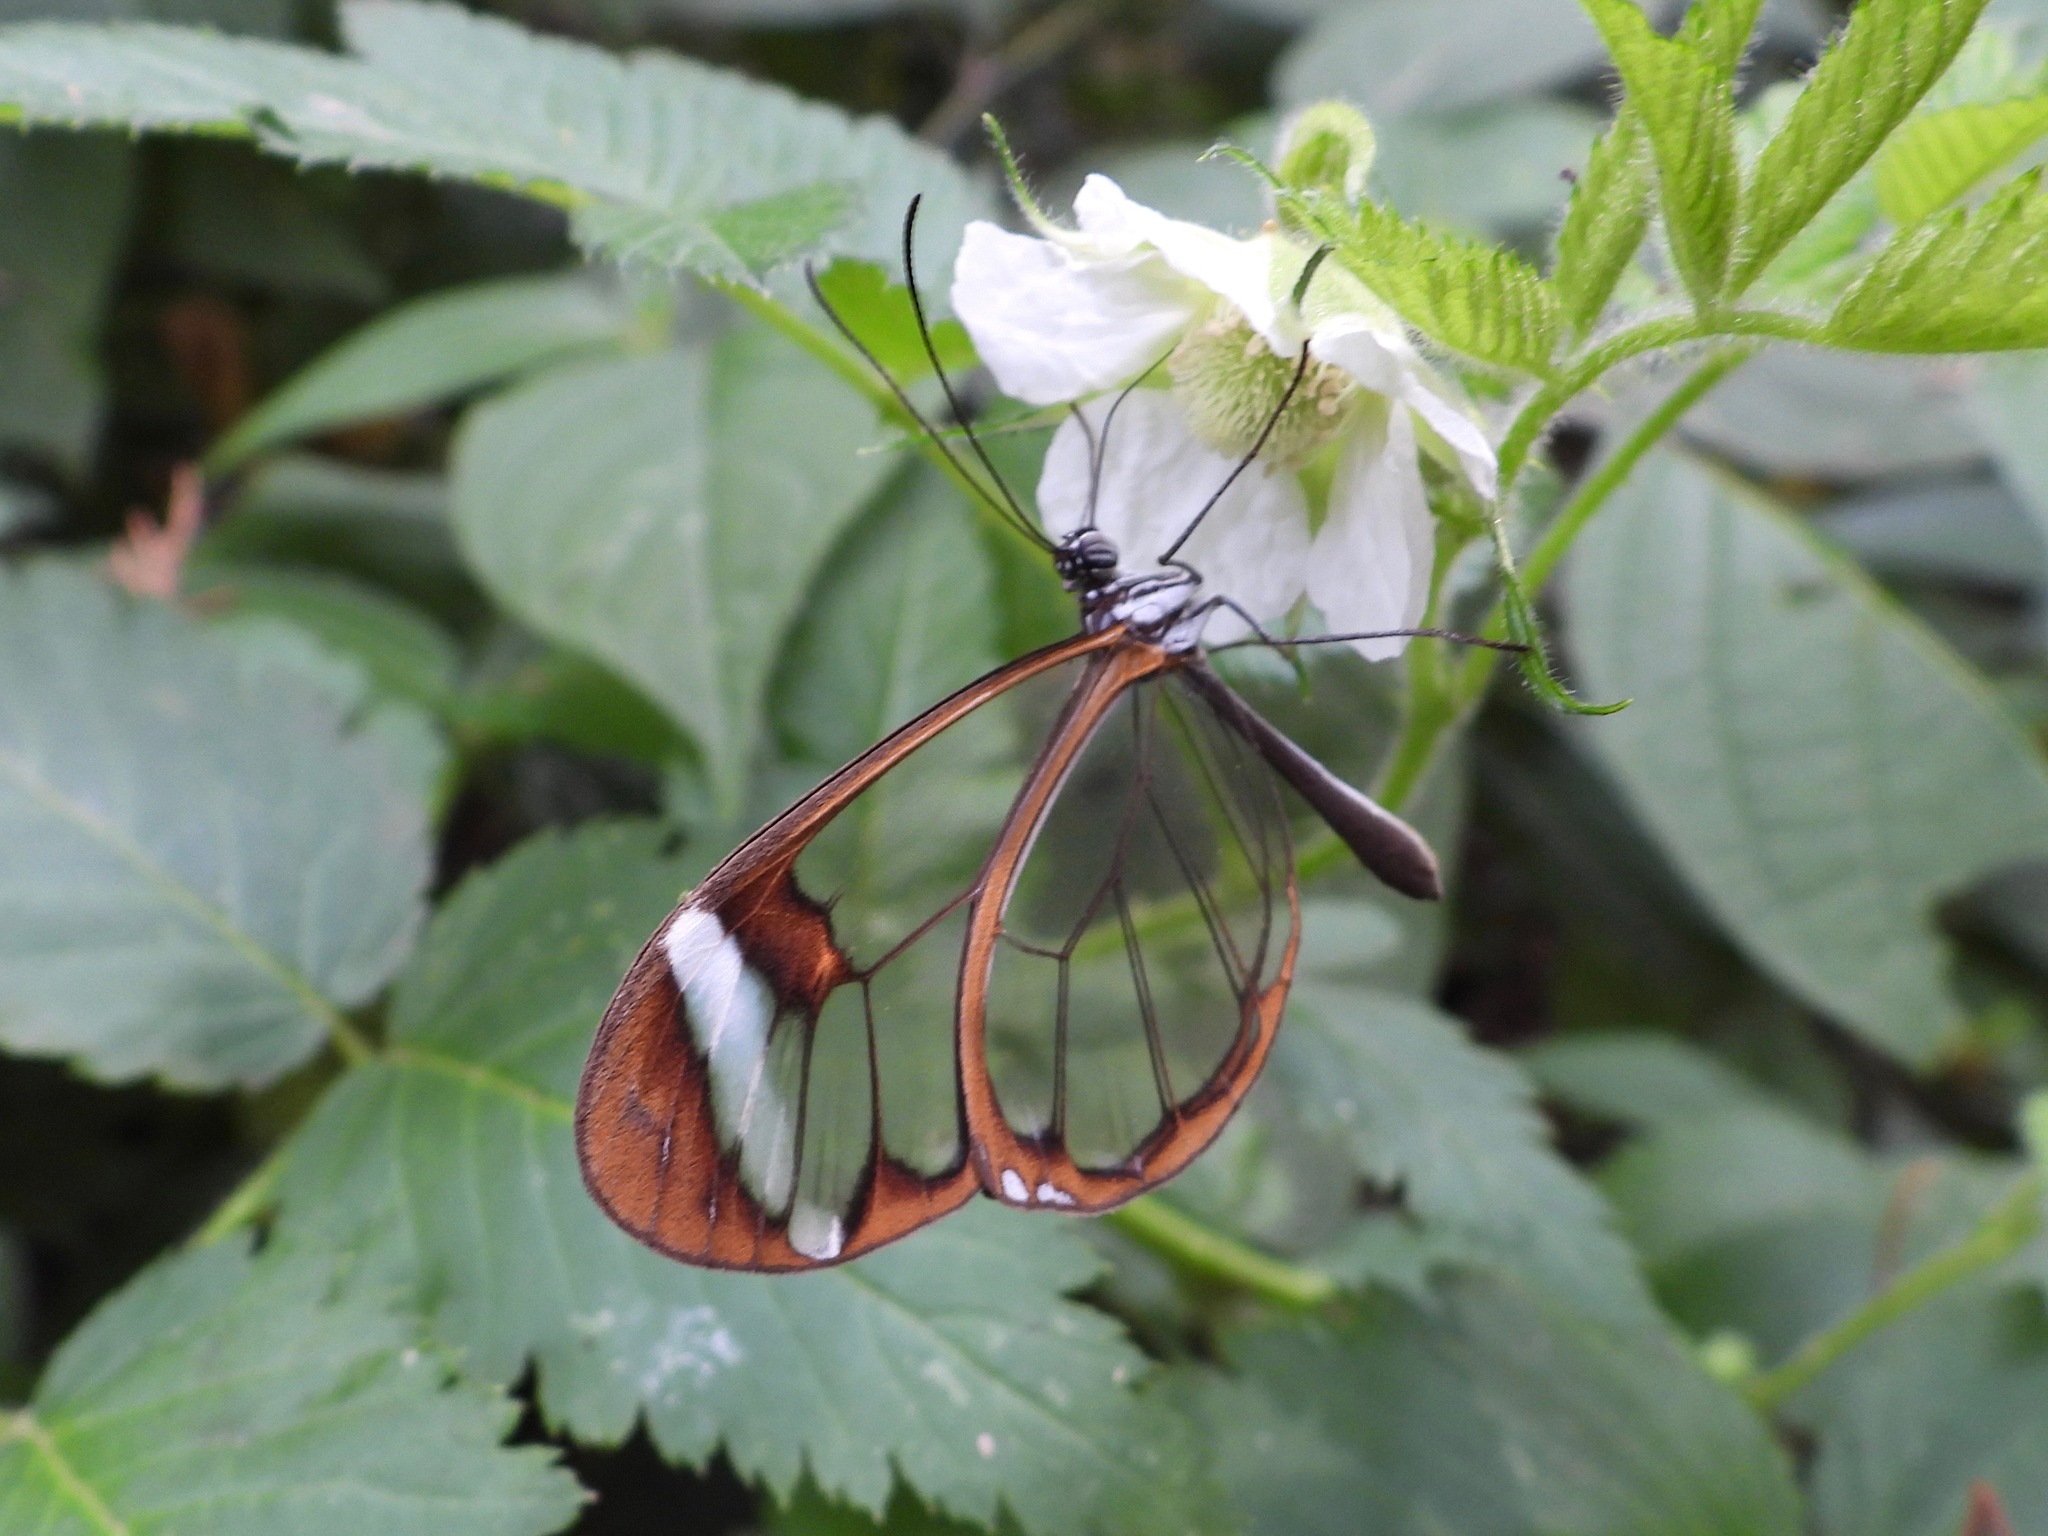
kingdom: Animalia
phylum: Arthropoda
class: Insecta
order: Lepidoptera
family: Nymphalidae
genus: Greta
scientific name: Greta morgane
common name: Thick-tipped greta
